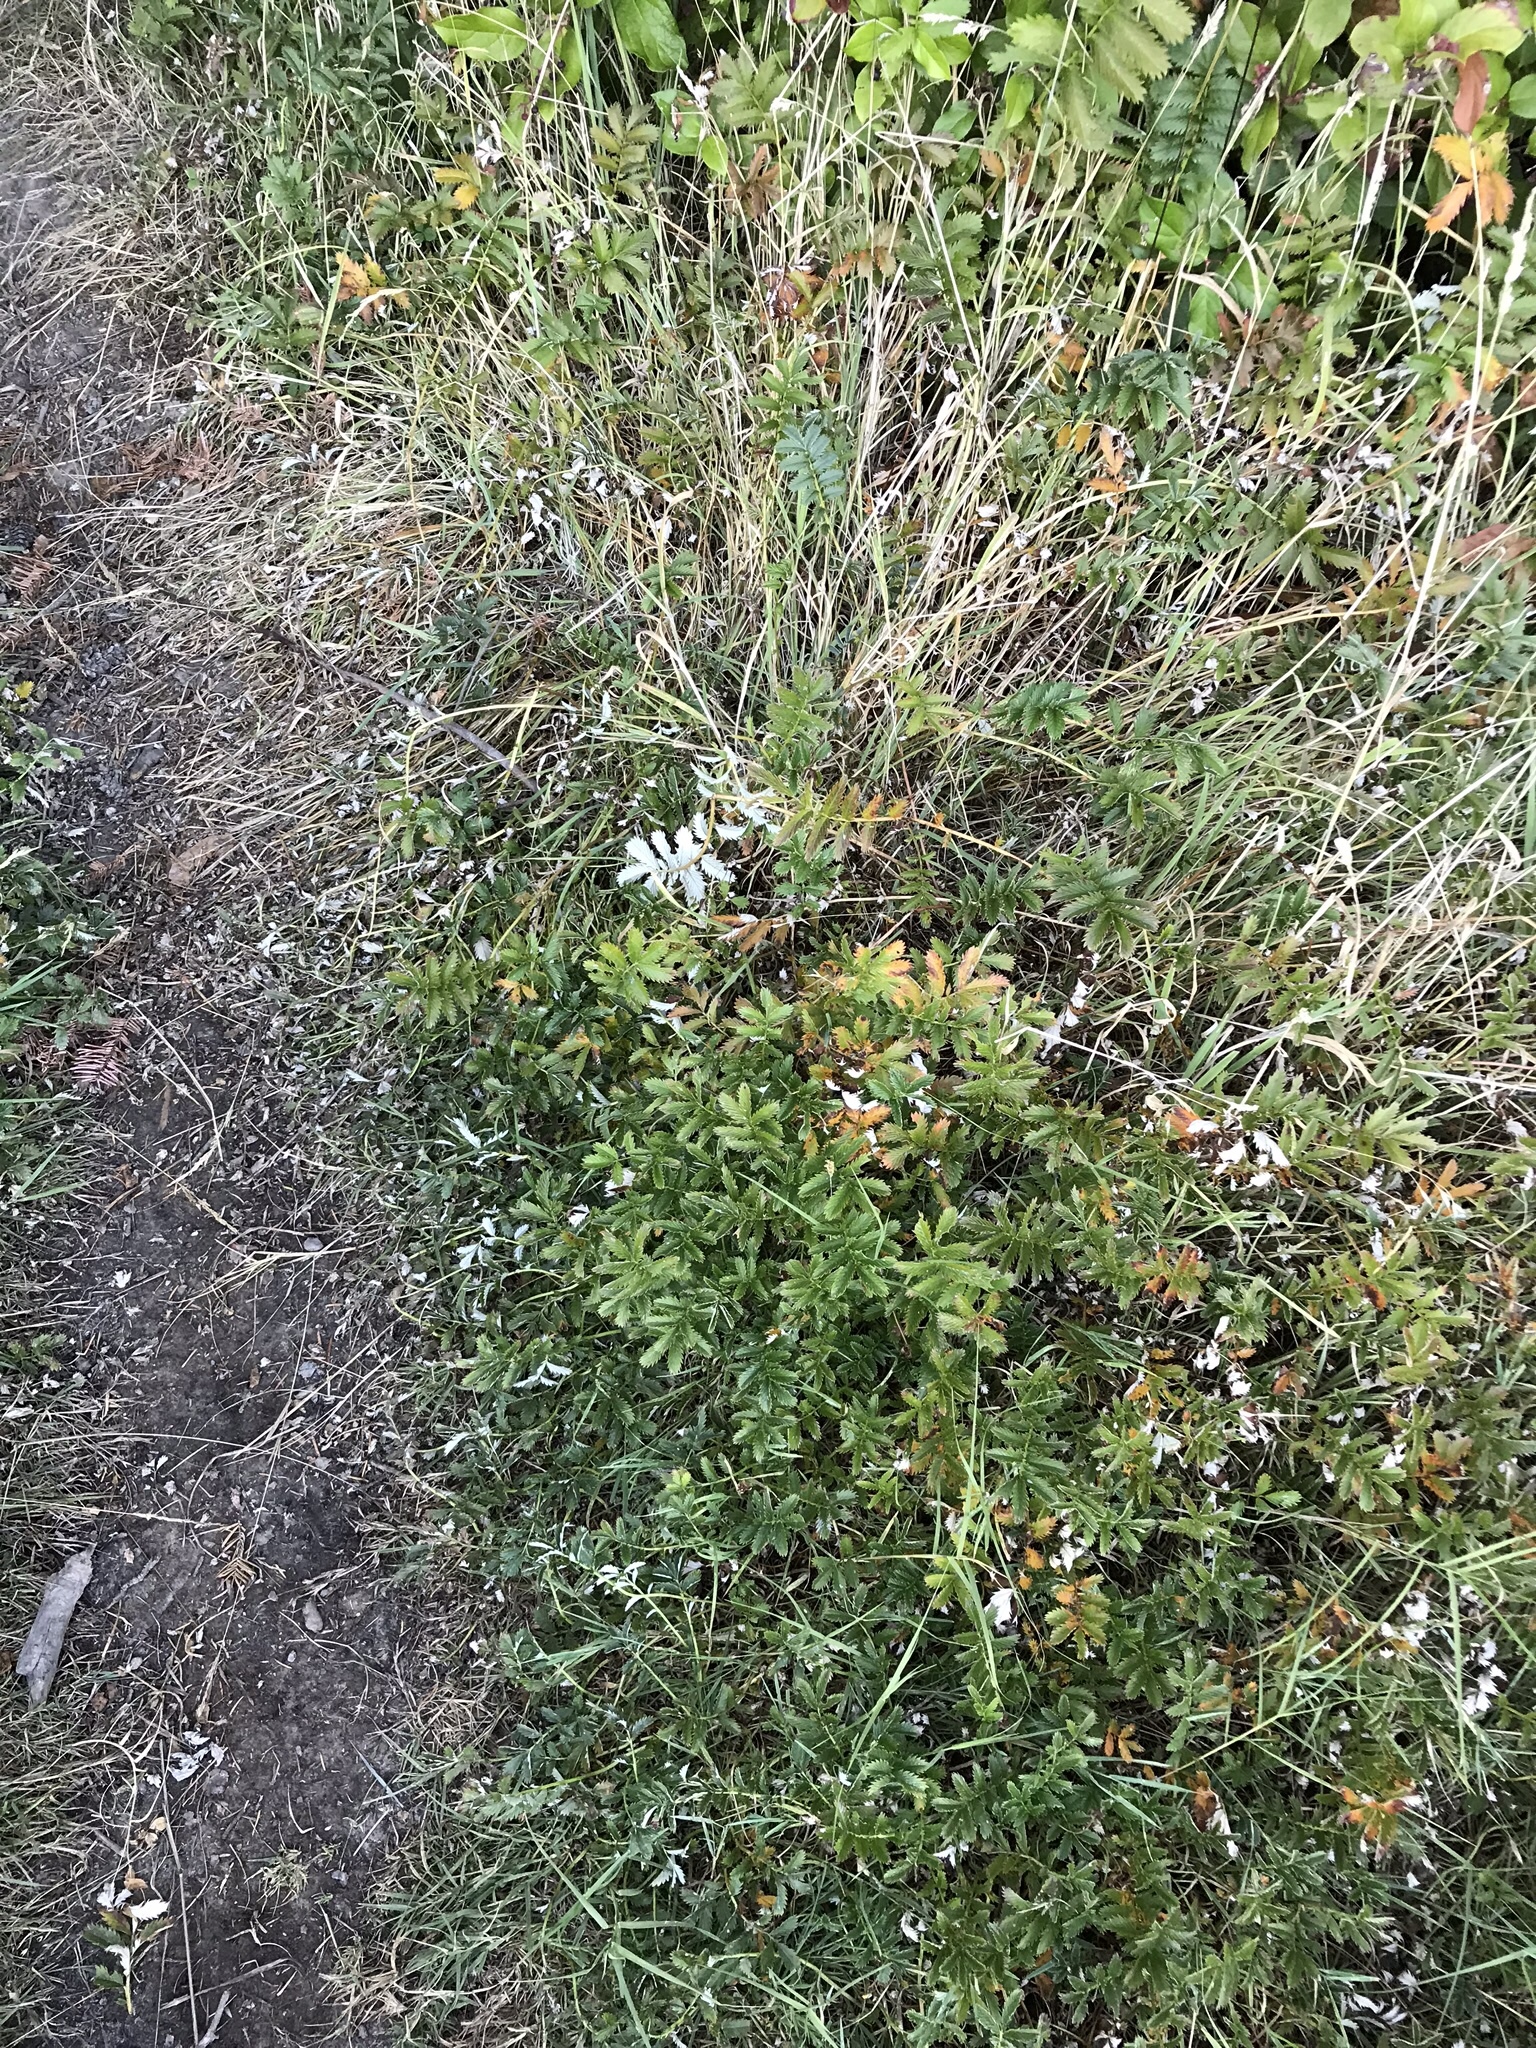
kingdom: Plantae
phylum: Tracheophyta
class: Magnoliopsida
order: Rosales
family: Rosaceae
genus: Argentina
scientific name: Argentina anserina
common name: Common silverweed
